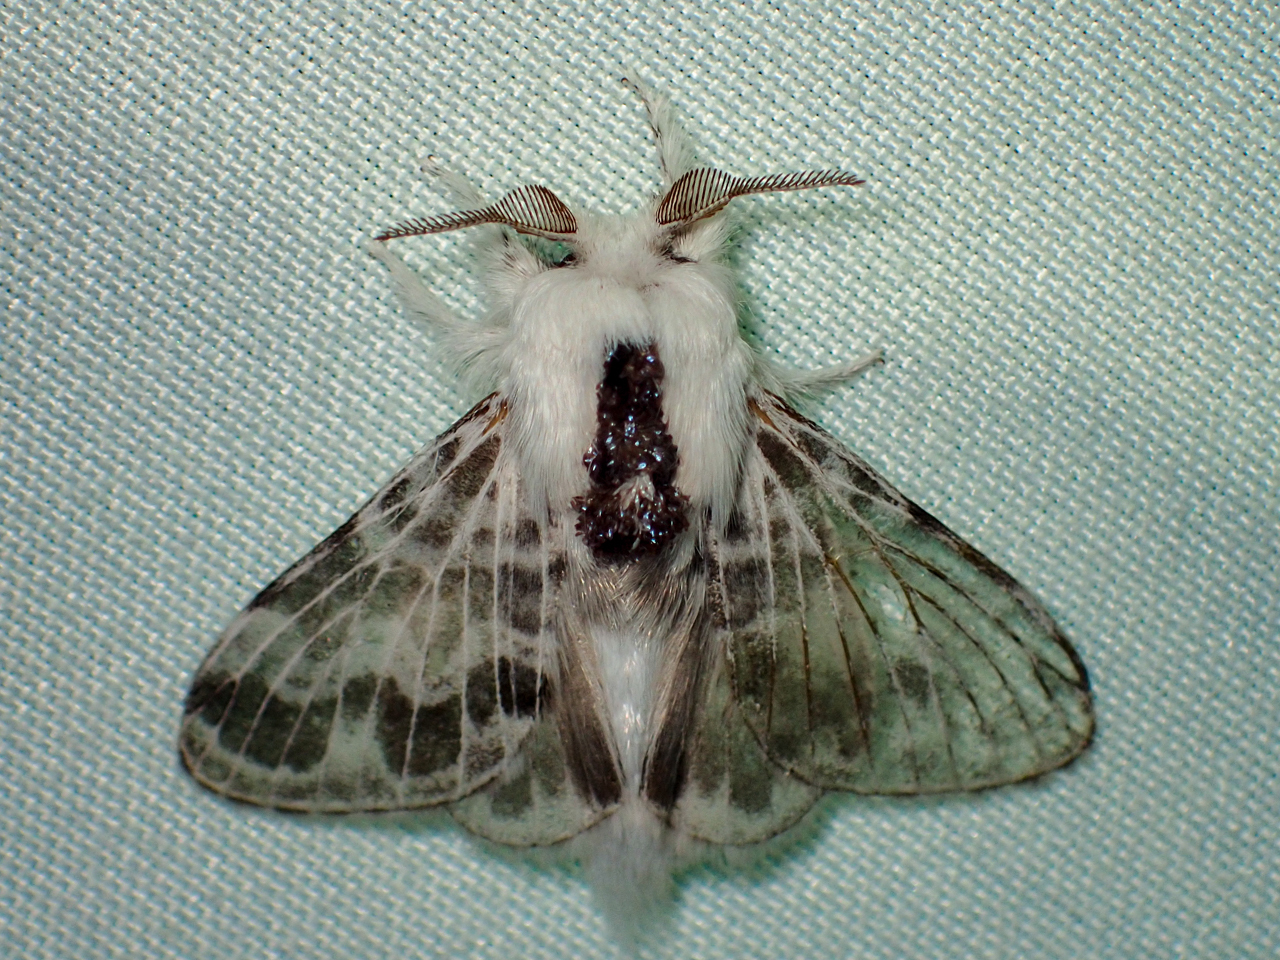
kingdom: Animalia
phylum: Arthropoda
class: Insecta
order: Lepidoptera
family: Lasiocampidae
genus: Tolype
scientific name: Tolype notialis
